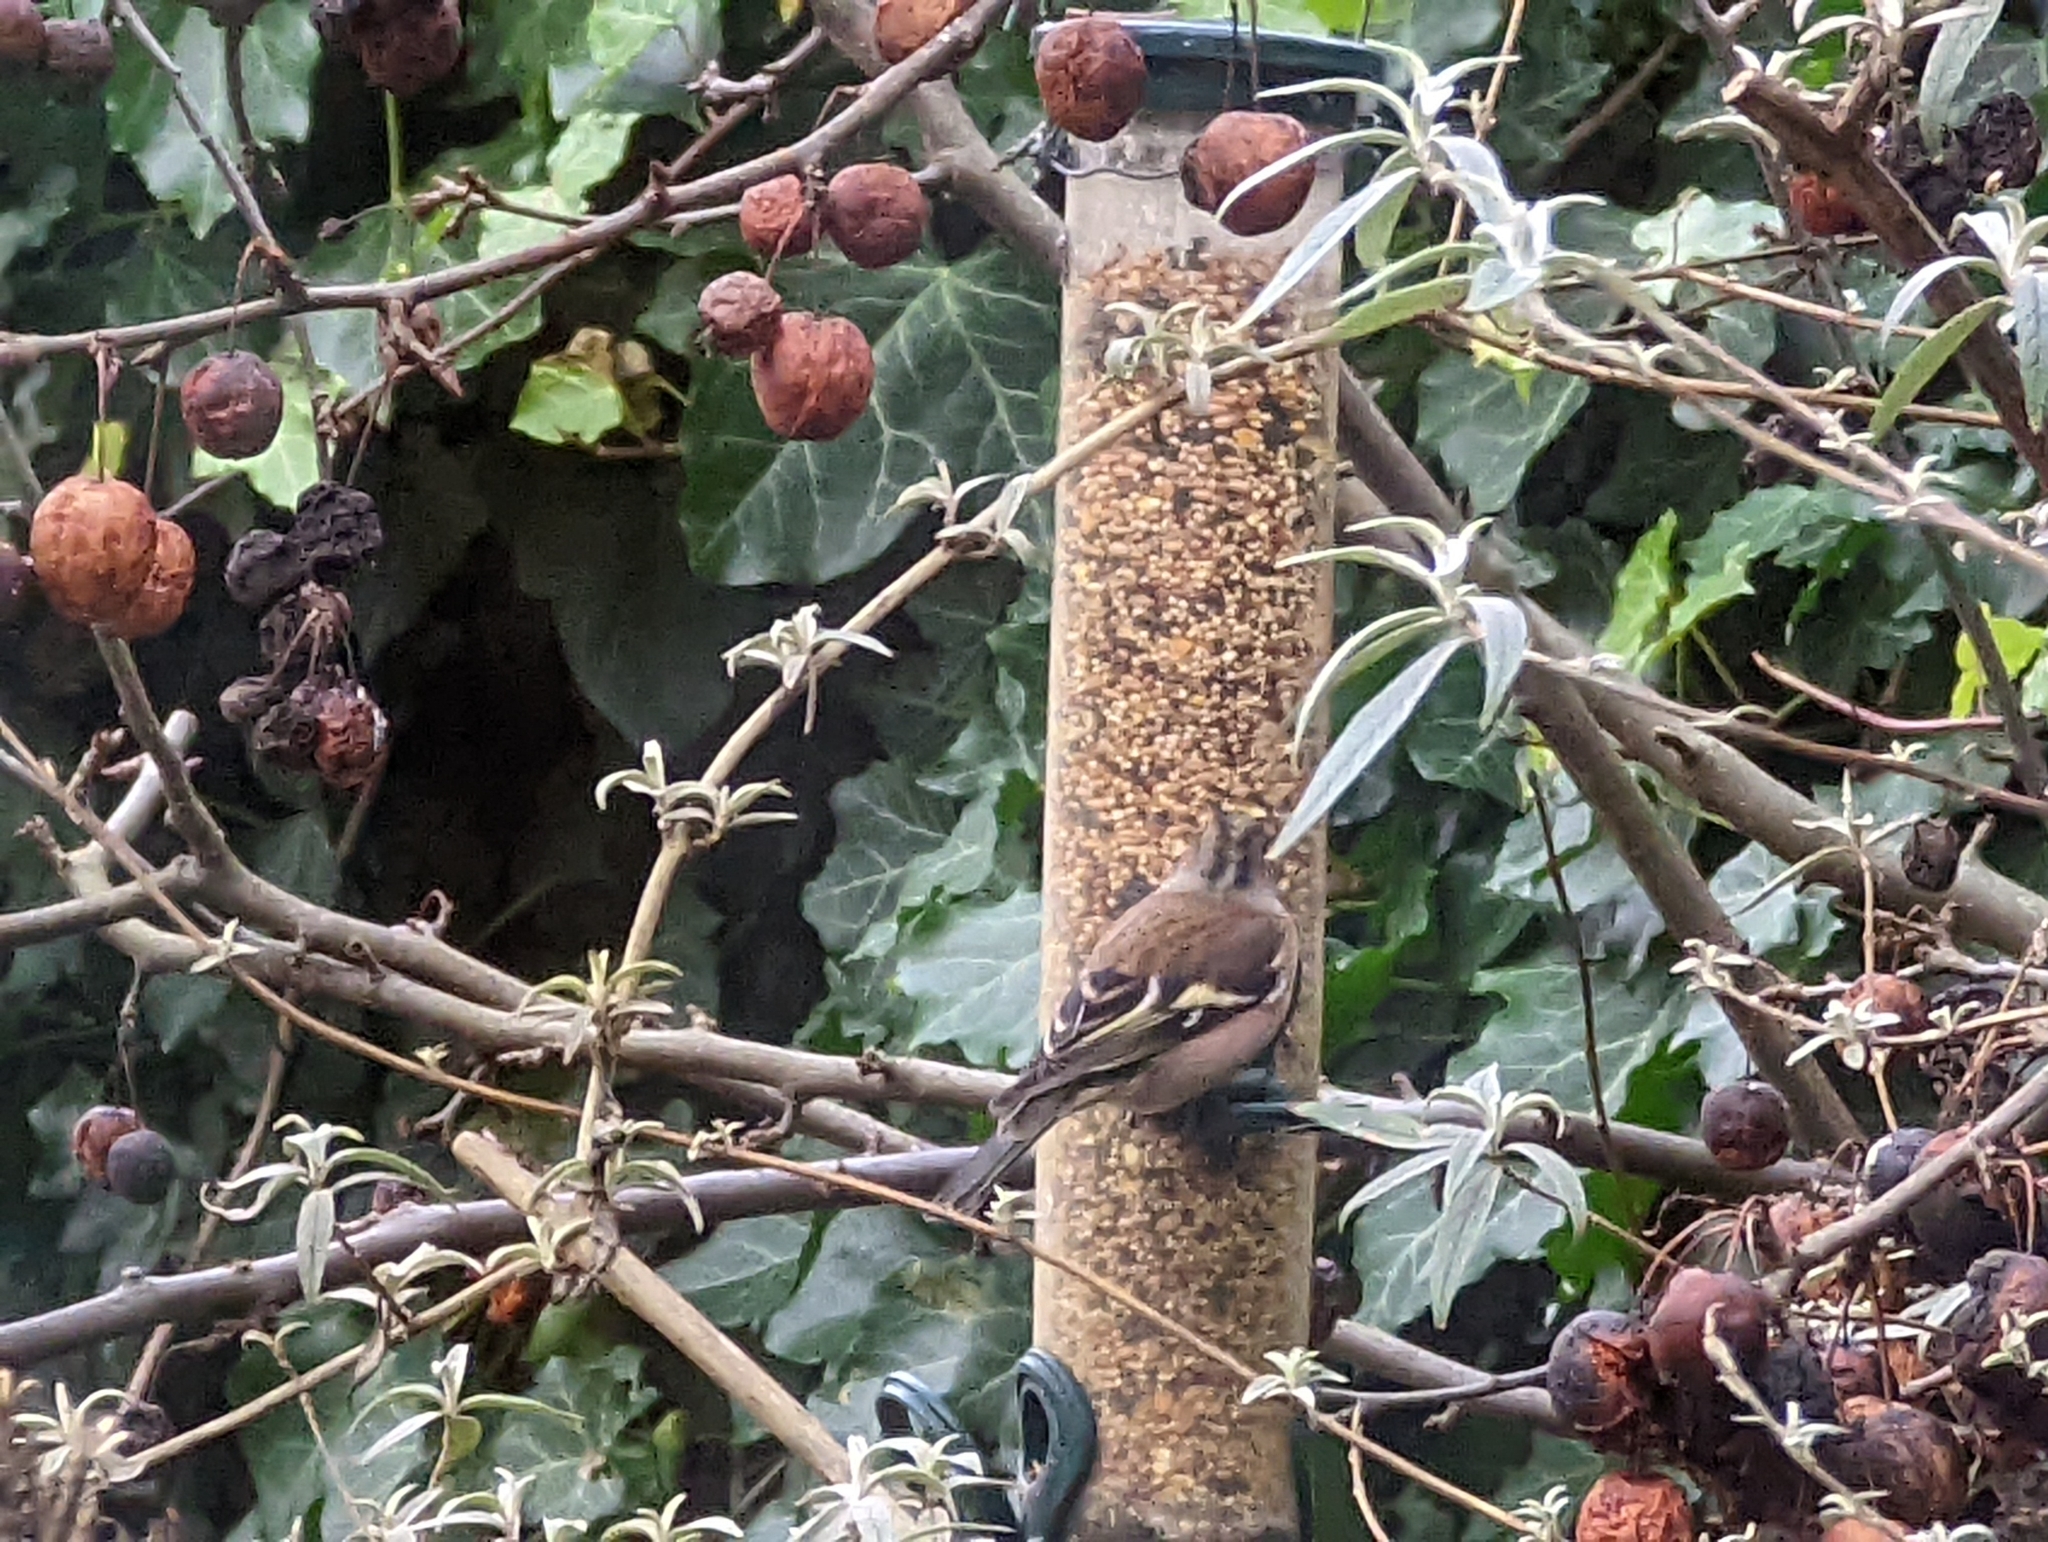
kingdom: Animalia
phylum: Chordata
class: Aves
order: Passeriformes
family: Fringillidae
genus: Fringilla
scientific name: Fringilla coelebs
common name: Common chaffinch
